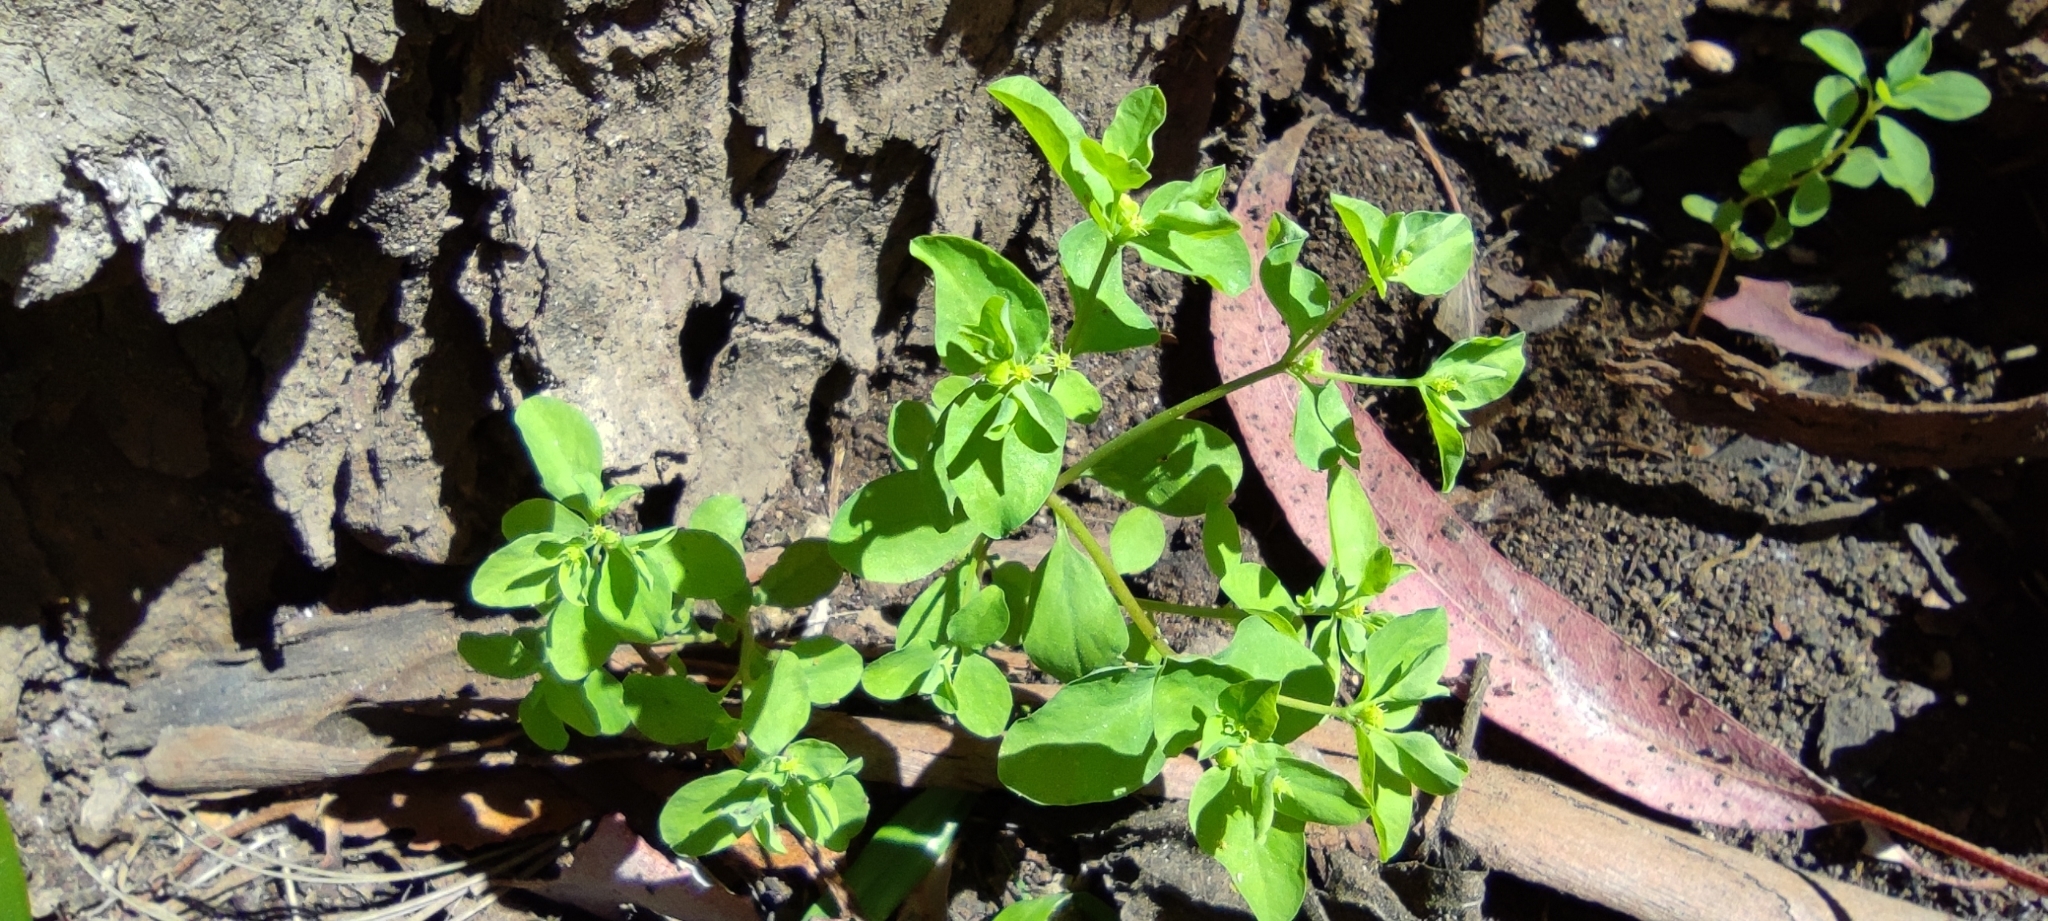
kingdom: Plantae
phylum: Tracheophyta
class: Magnoliopsida
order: Malpighiales
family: Euphorbiaceae
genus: Euphorbia
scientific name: Euphorbia peplus
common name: Petty spurge
